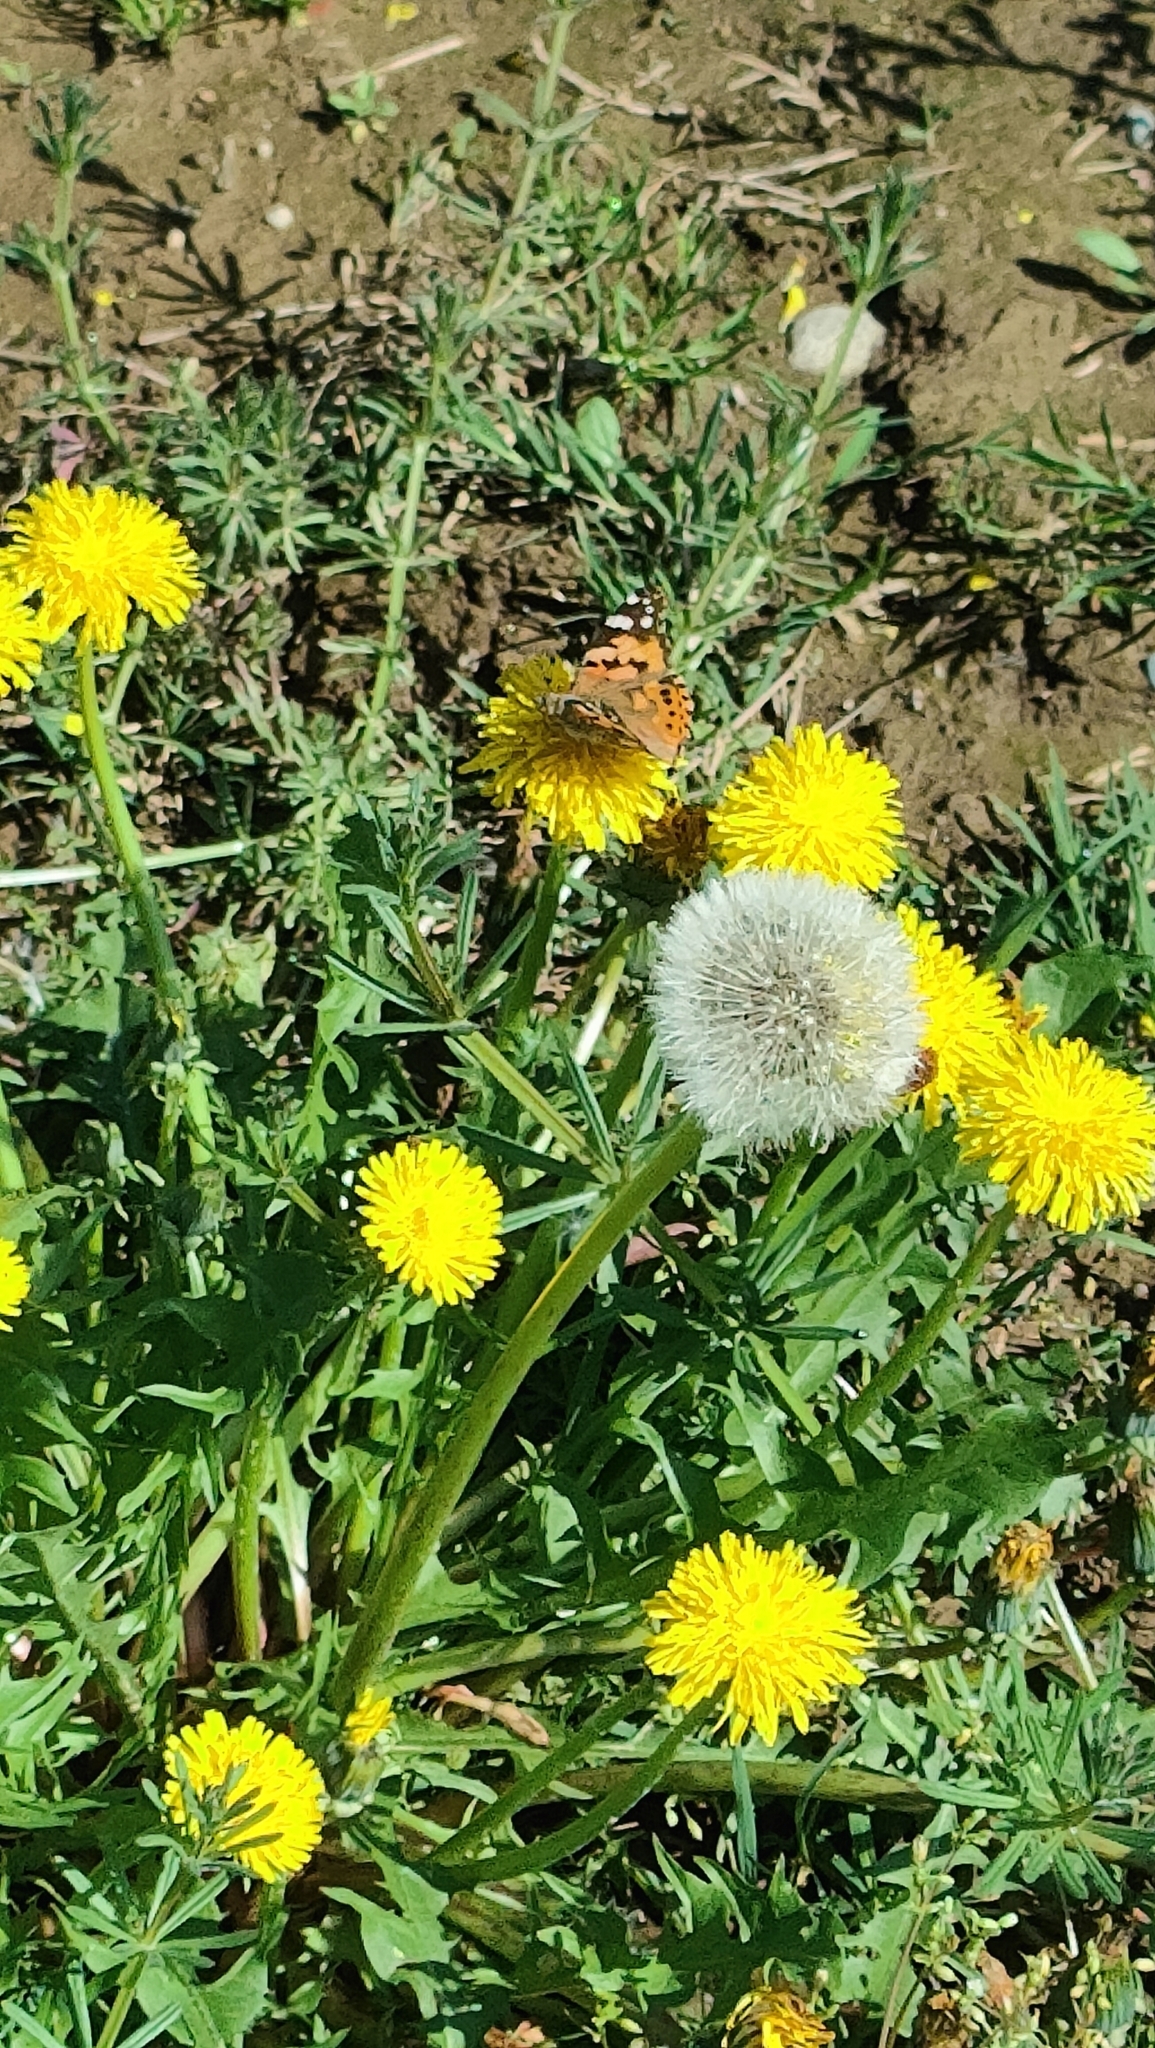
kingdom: Animalia
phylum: Arthropoda
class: Insecta
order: Lepidoptera
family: Nymphalidae
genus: Vanessa
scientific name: Vanessa cardui
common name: Painted lady
